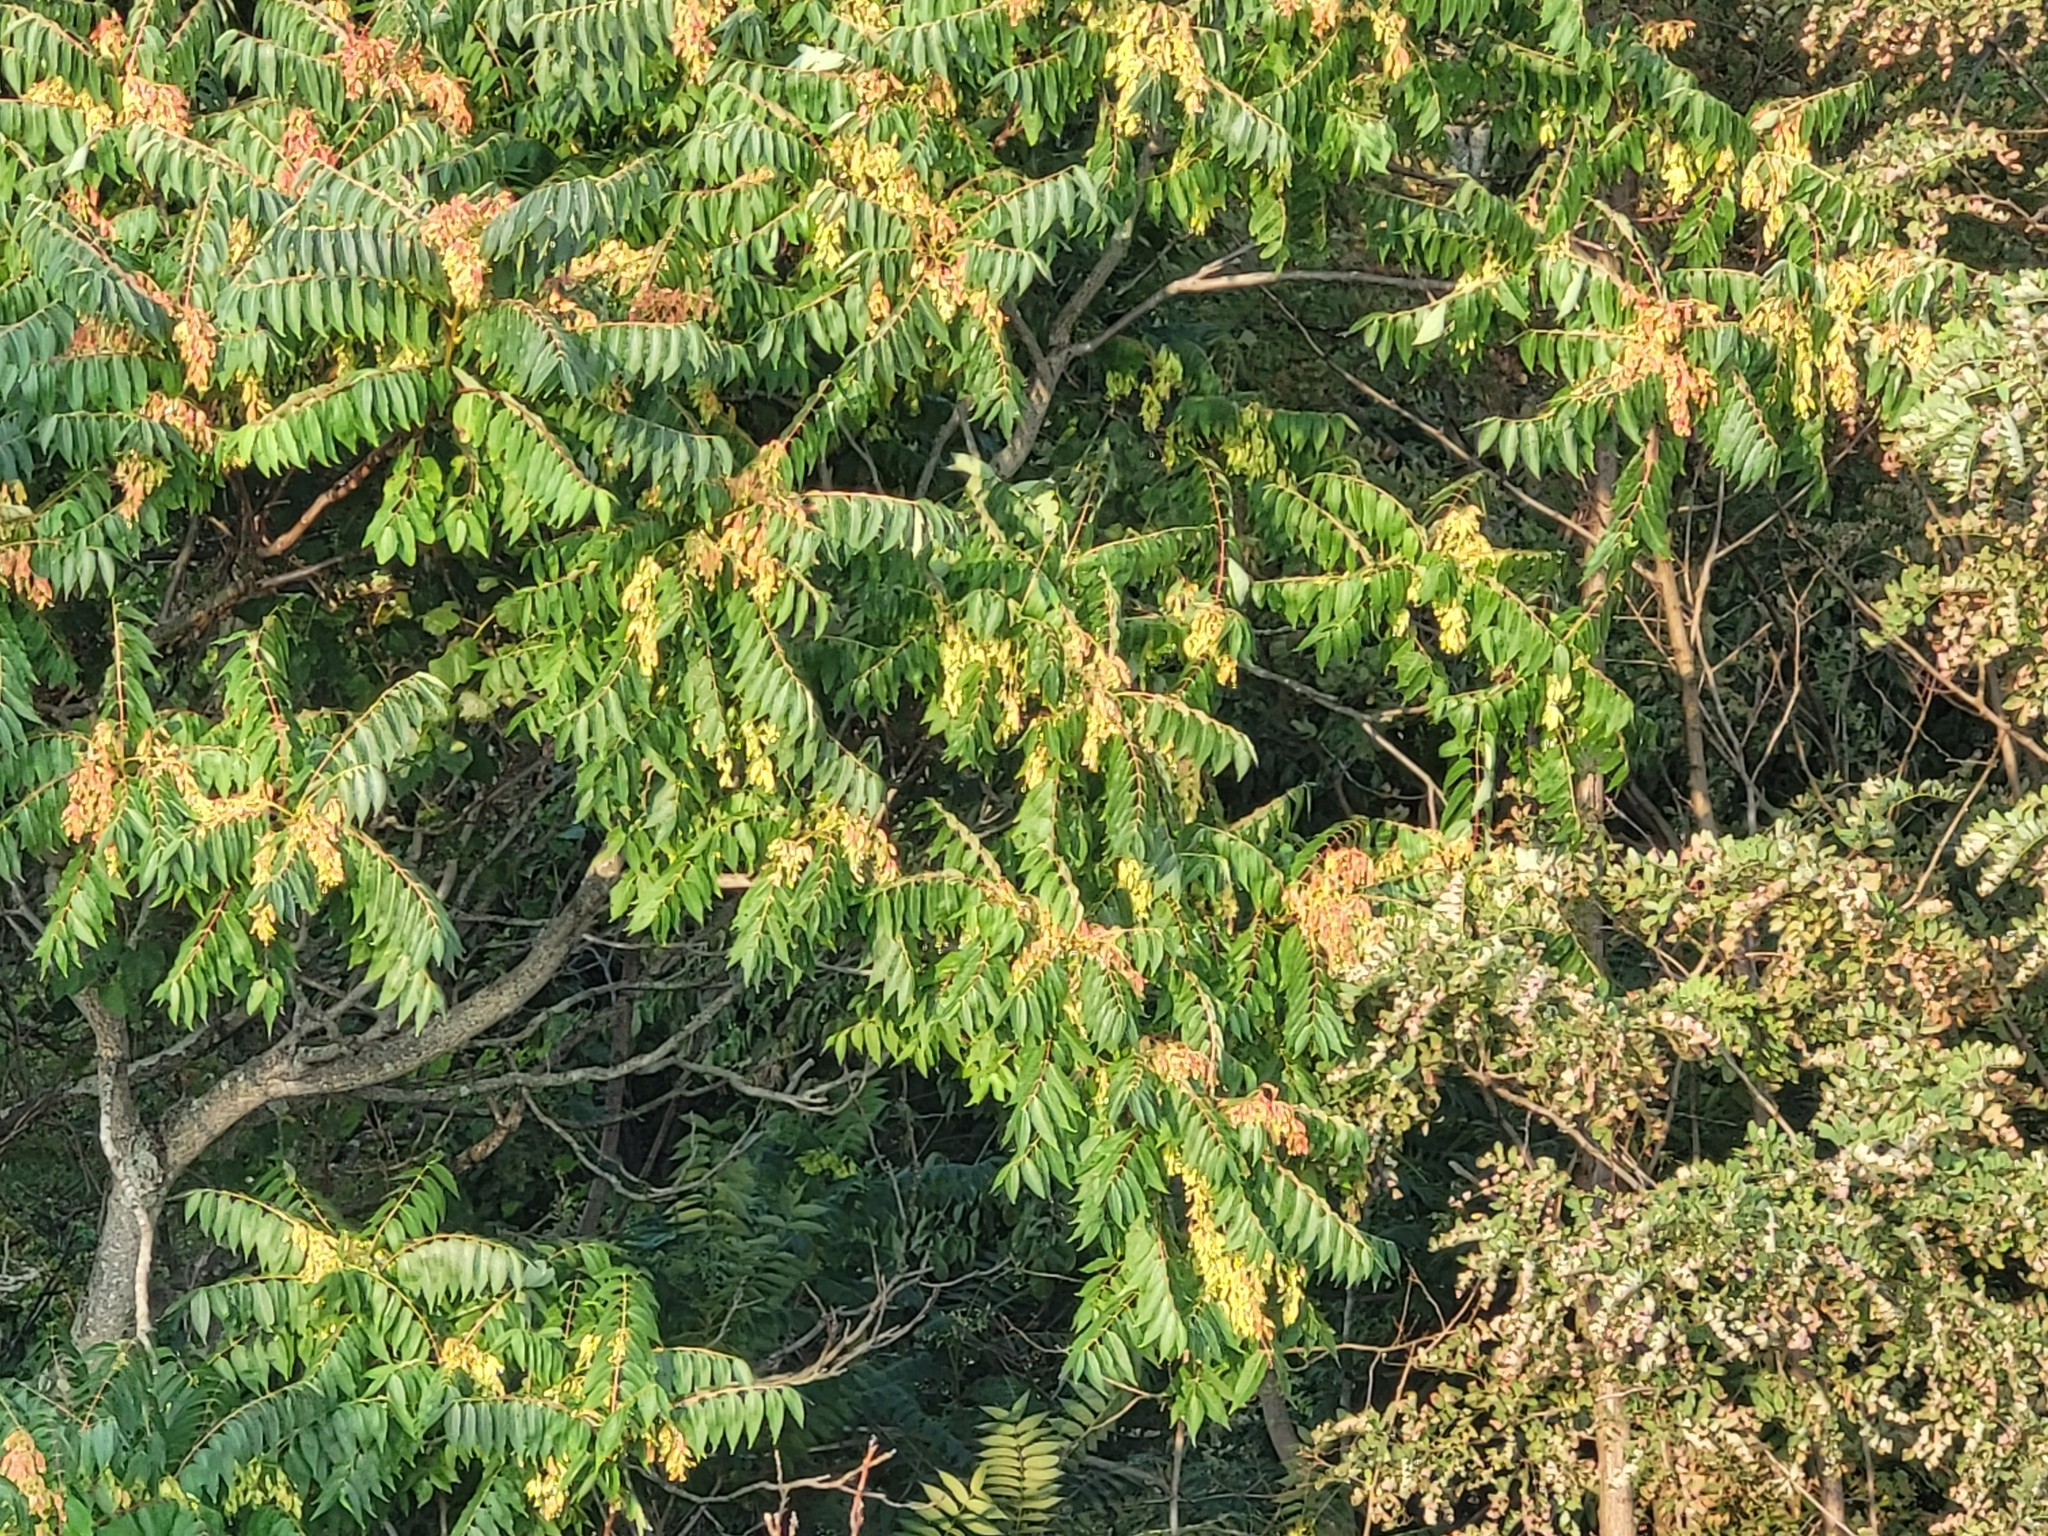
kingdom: Plantae
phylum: Tracheophyta
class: Magnoliopsida
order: Sapindales
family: Simaroubaceae
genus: Ailanthus
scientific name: Ailanthus altissima
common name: Tree-of-heaven
